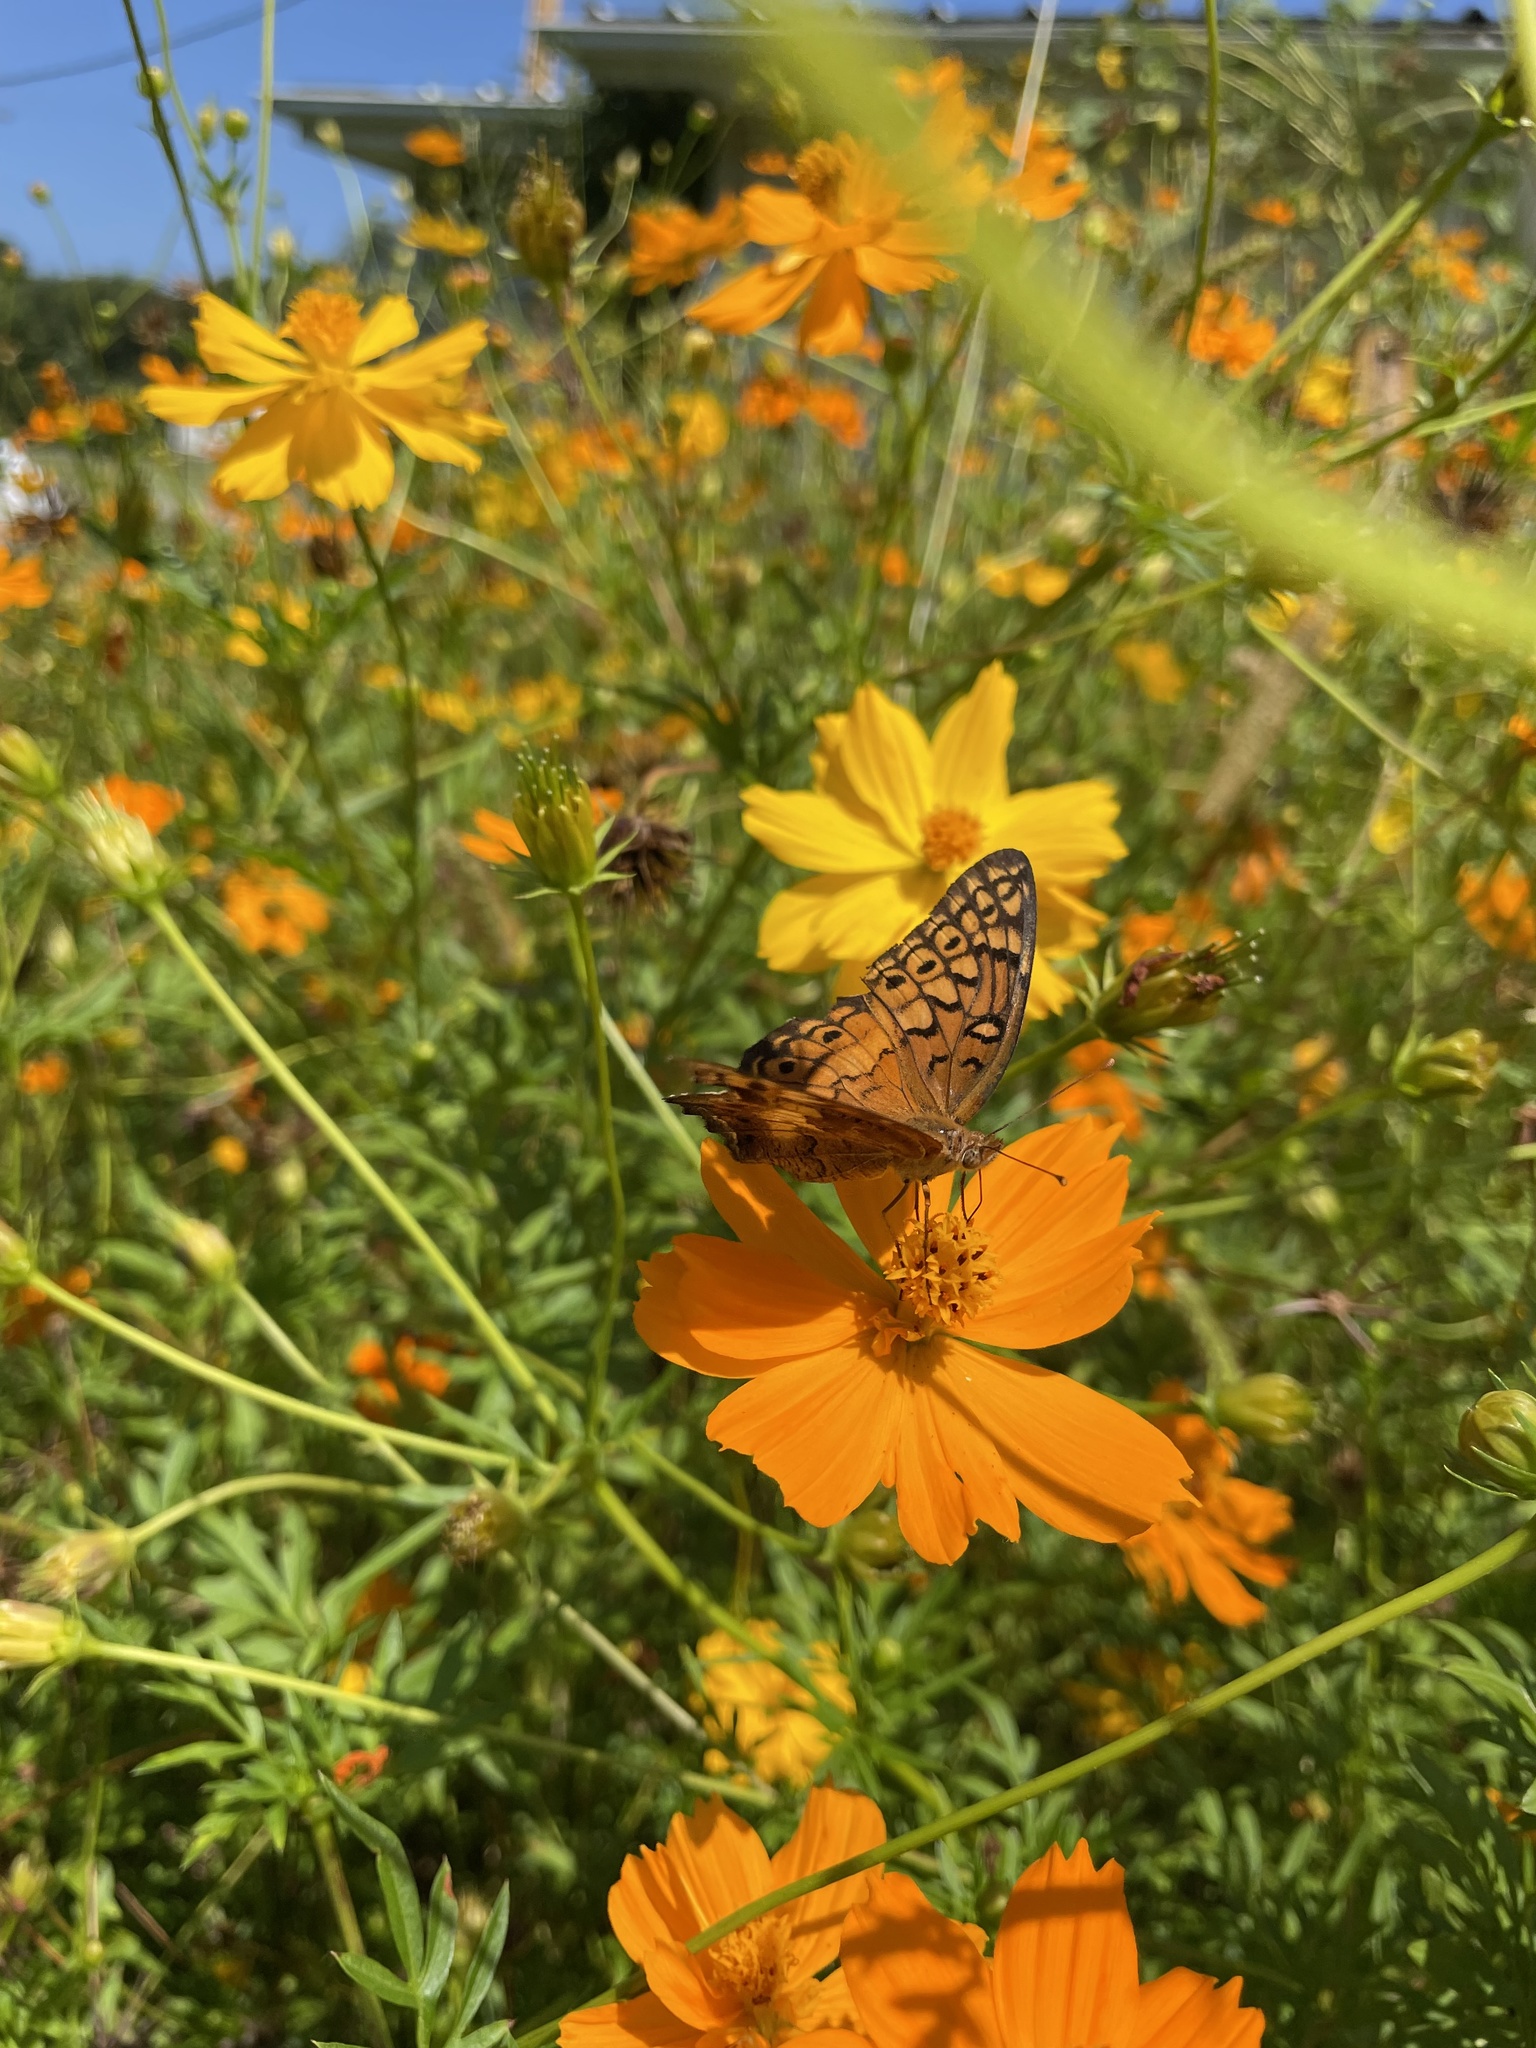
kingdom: Animalia
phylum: Arthropoda
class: Insecta
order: Lepidoptera
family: Nymphalidae
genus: Euptoieta
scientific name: Euptoieta claudia
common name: Variegated fritillary
